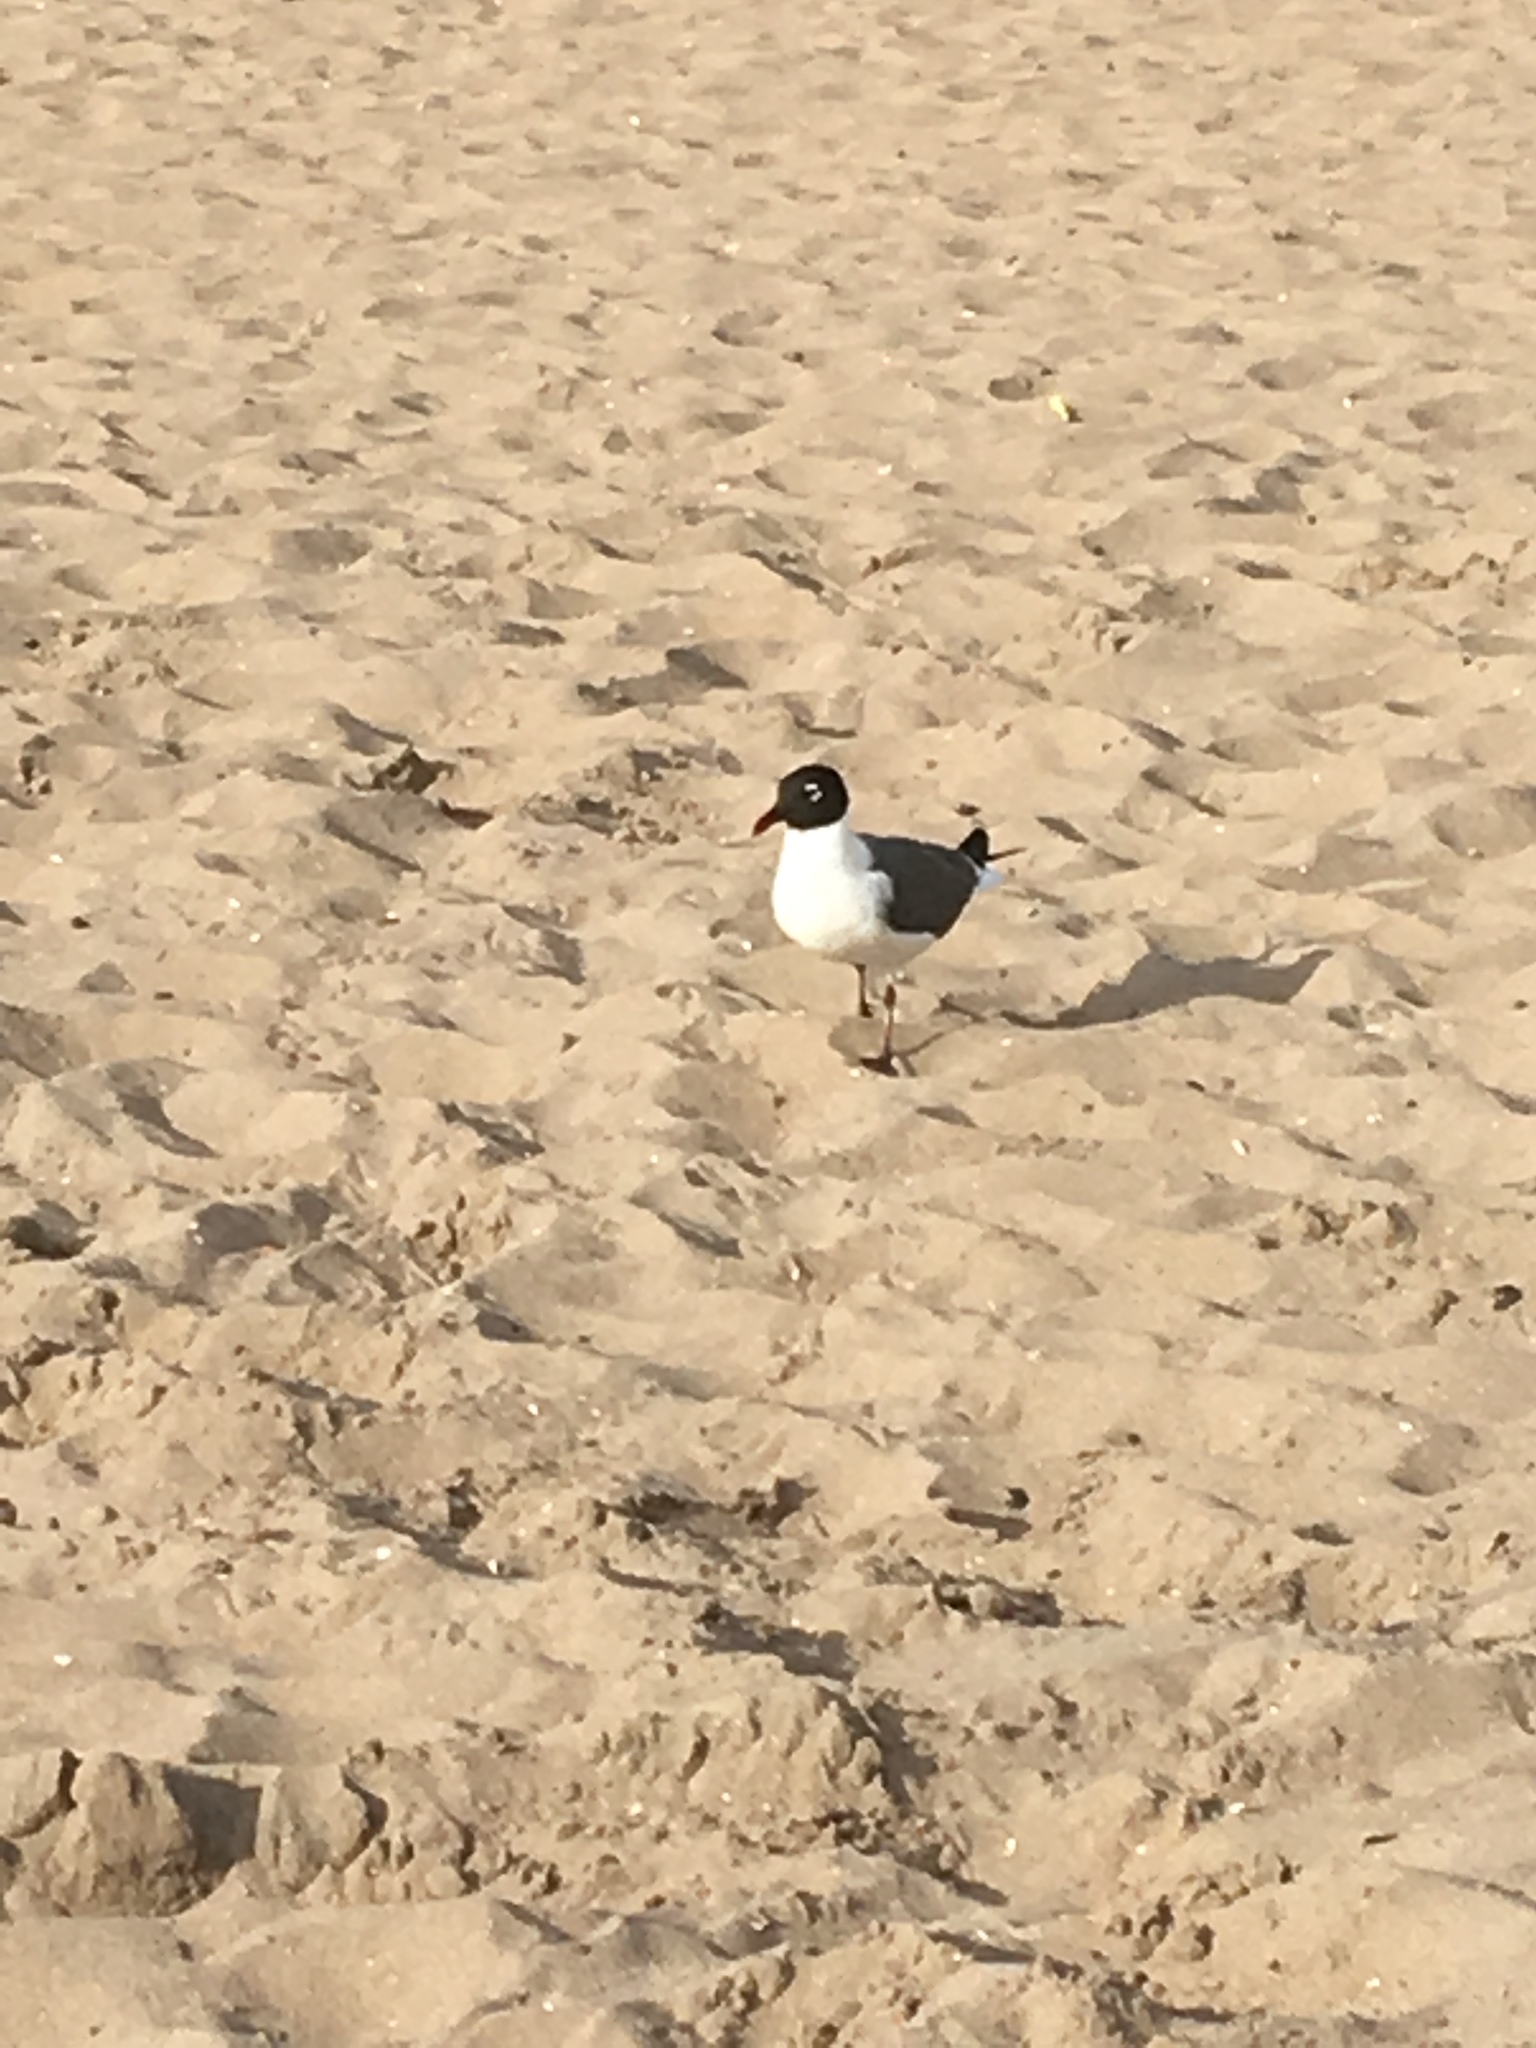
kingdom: Animalia
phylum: Chordata
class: Aves
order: Charadriiformes
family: Laridae
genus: Leucophaeus
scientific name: Leucophaeus atricilla
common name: Laughing gull
